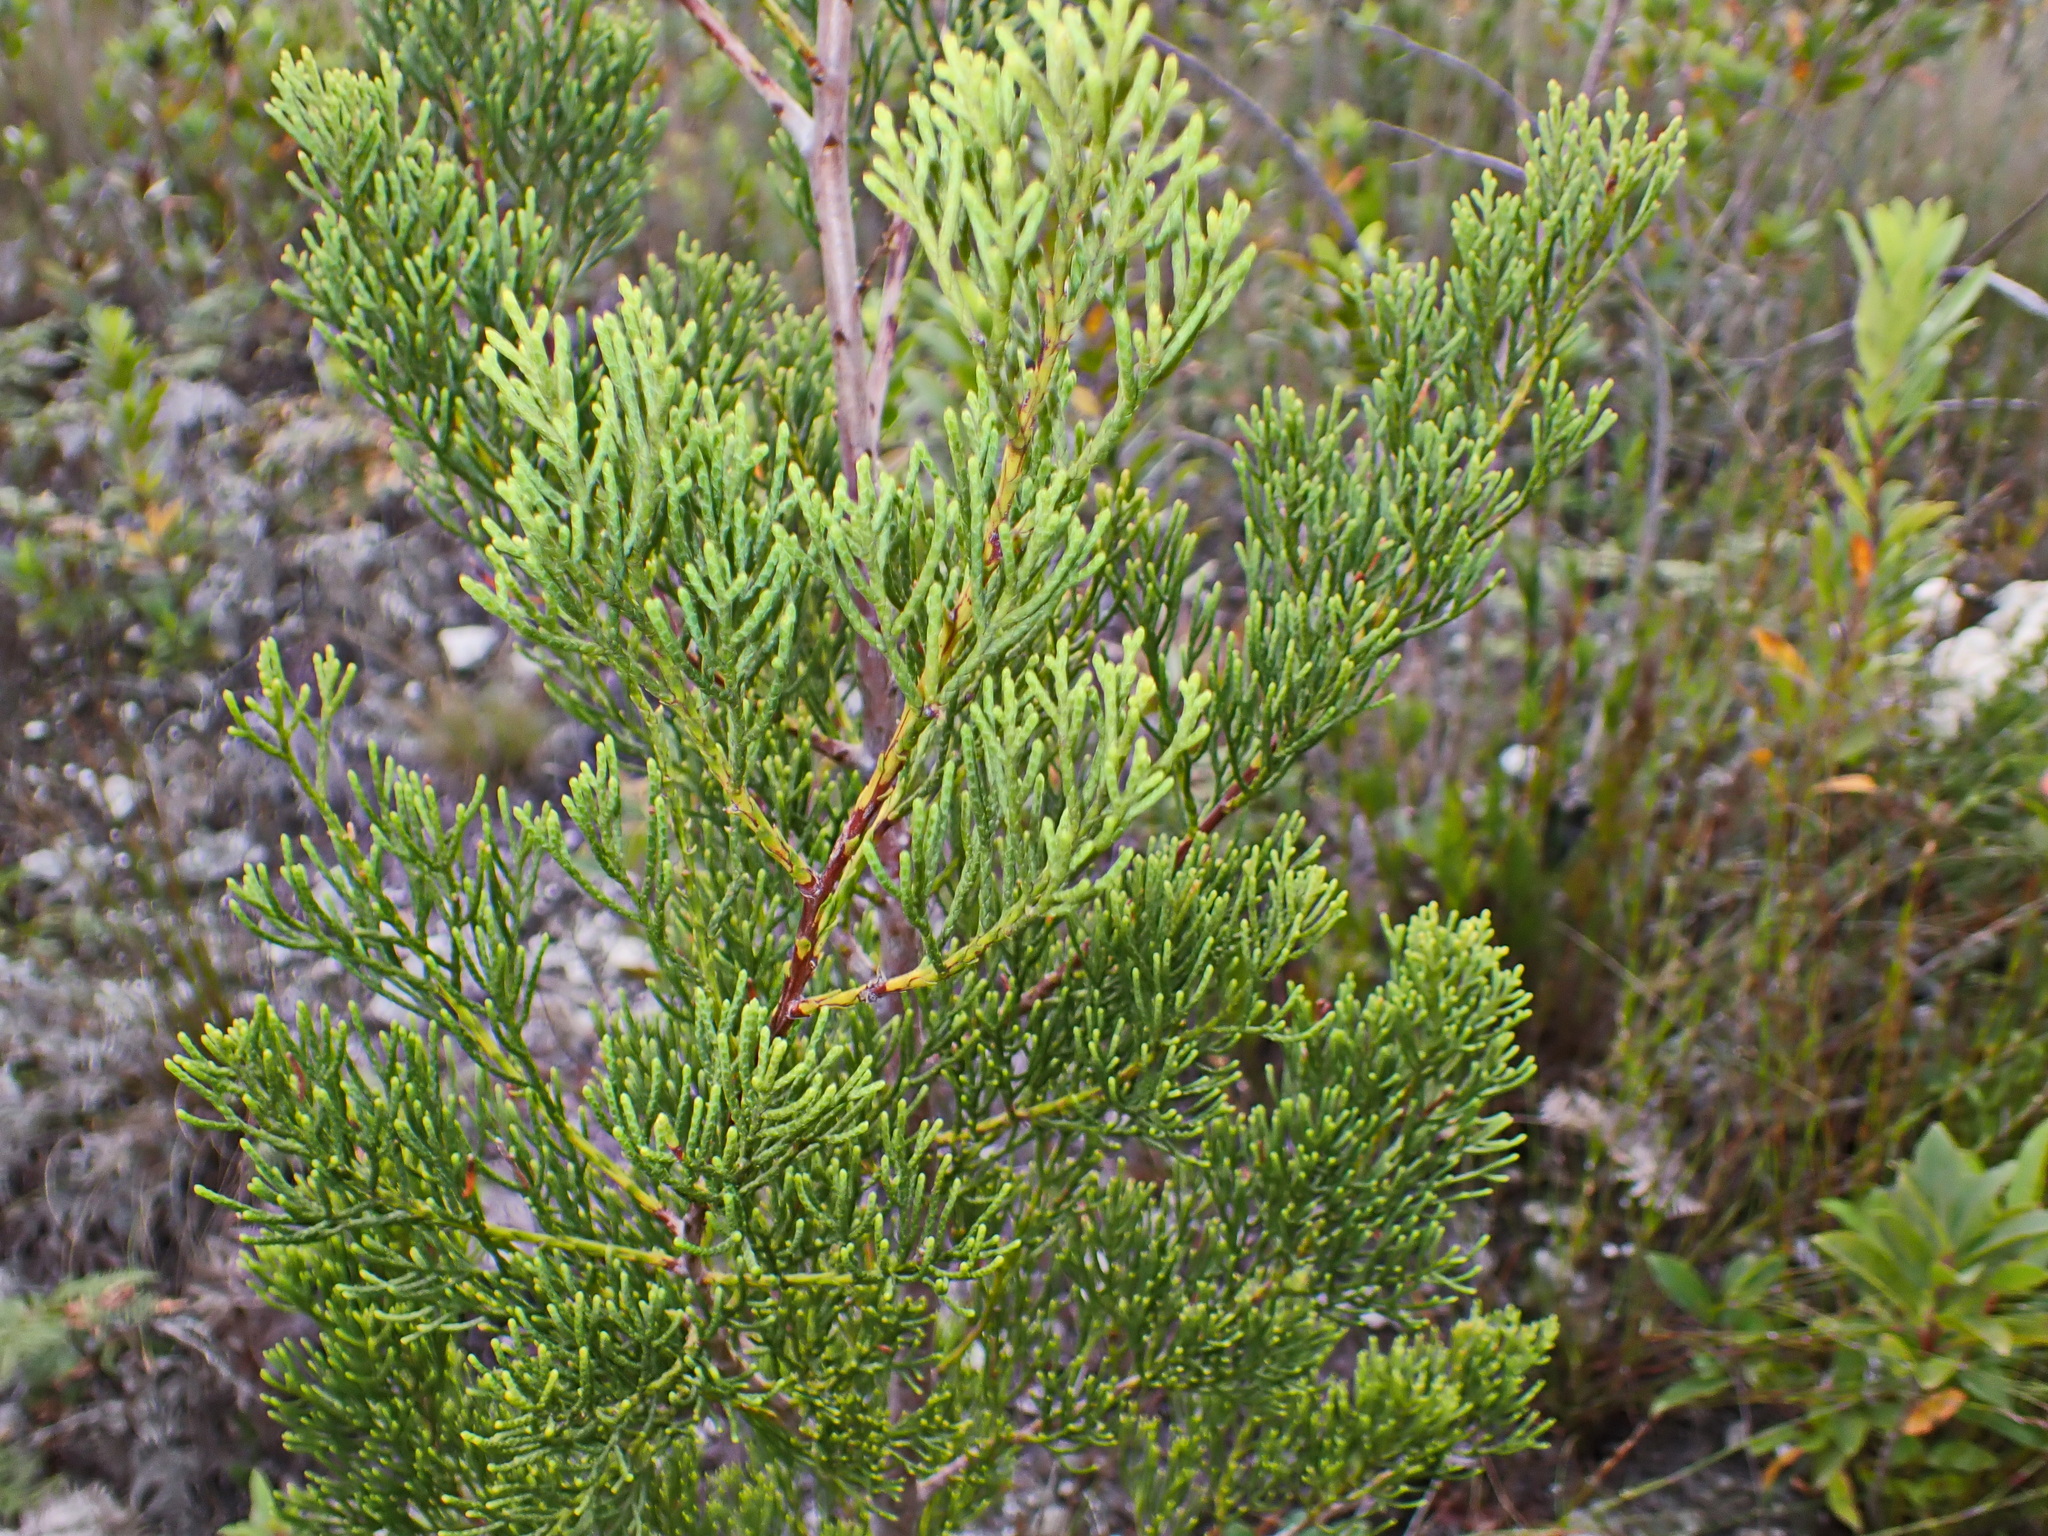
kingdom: Plantae
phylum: Tracheophyta
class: Pinopsida
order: Pinales
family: Cupressaceae
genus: Widdringtonia
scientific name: Widdringtonia nodiflora
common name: Cape cypress
